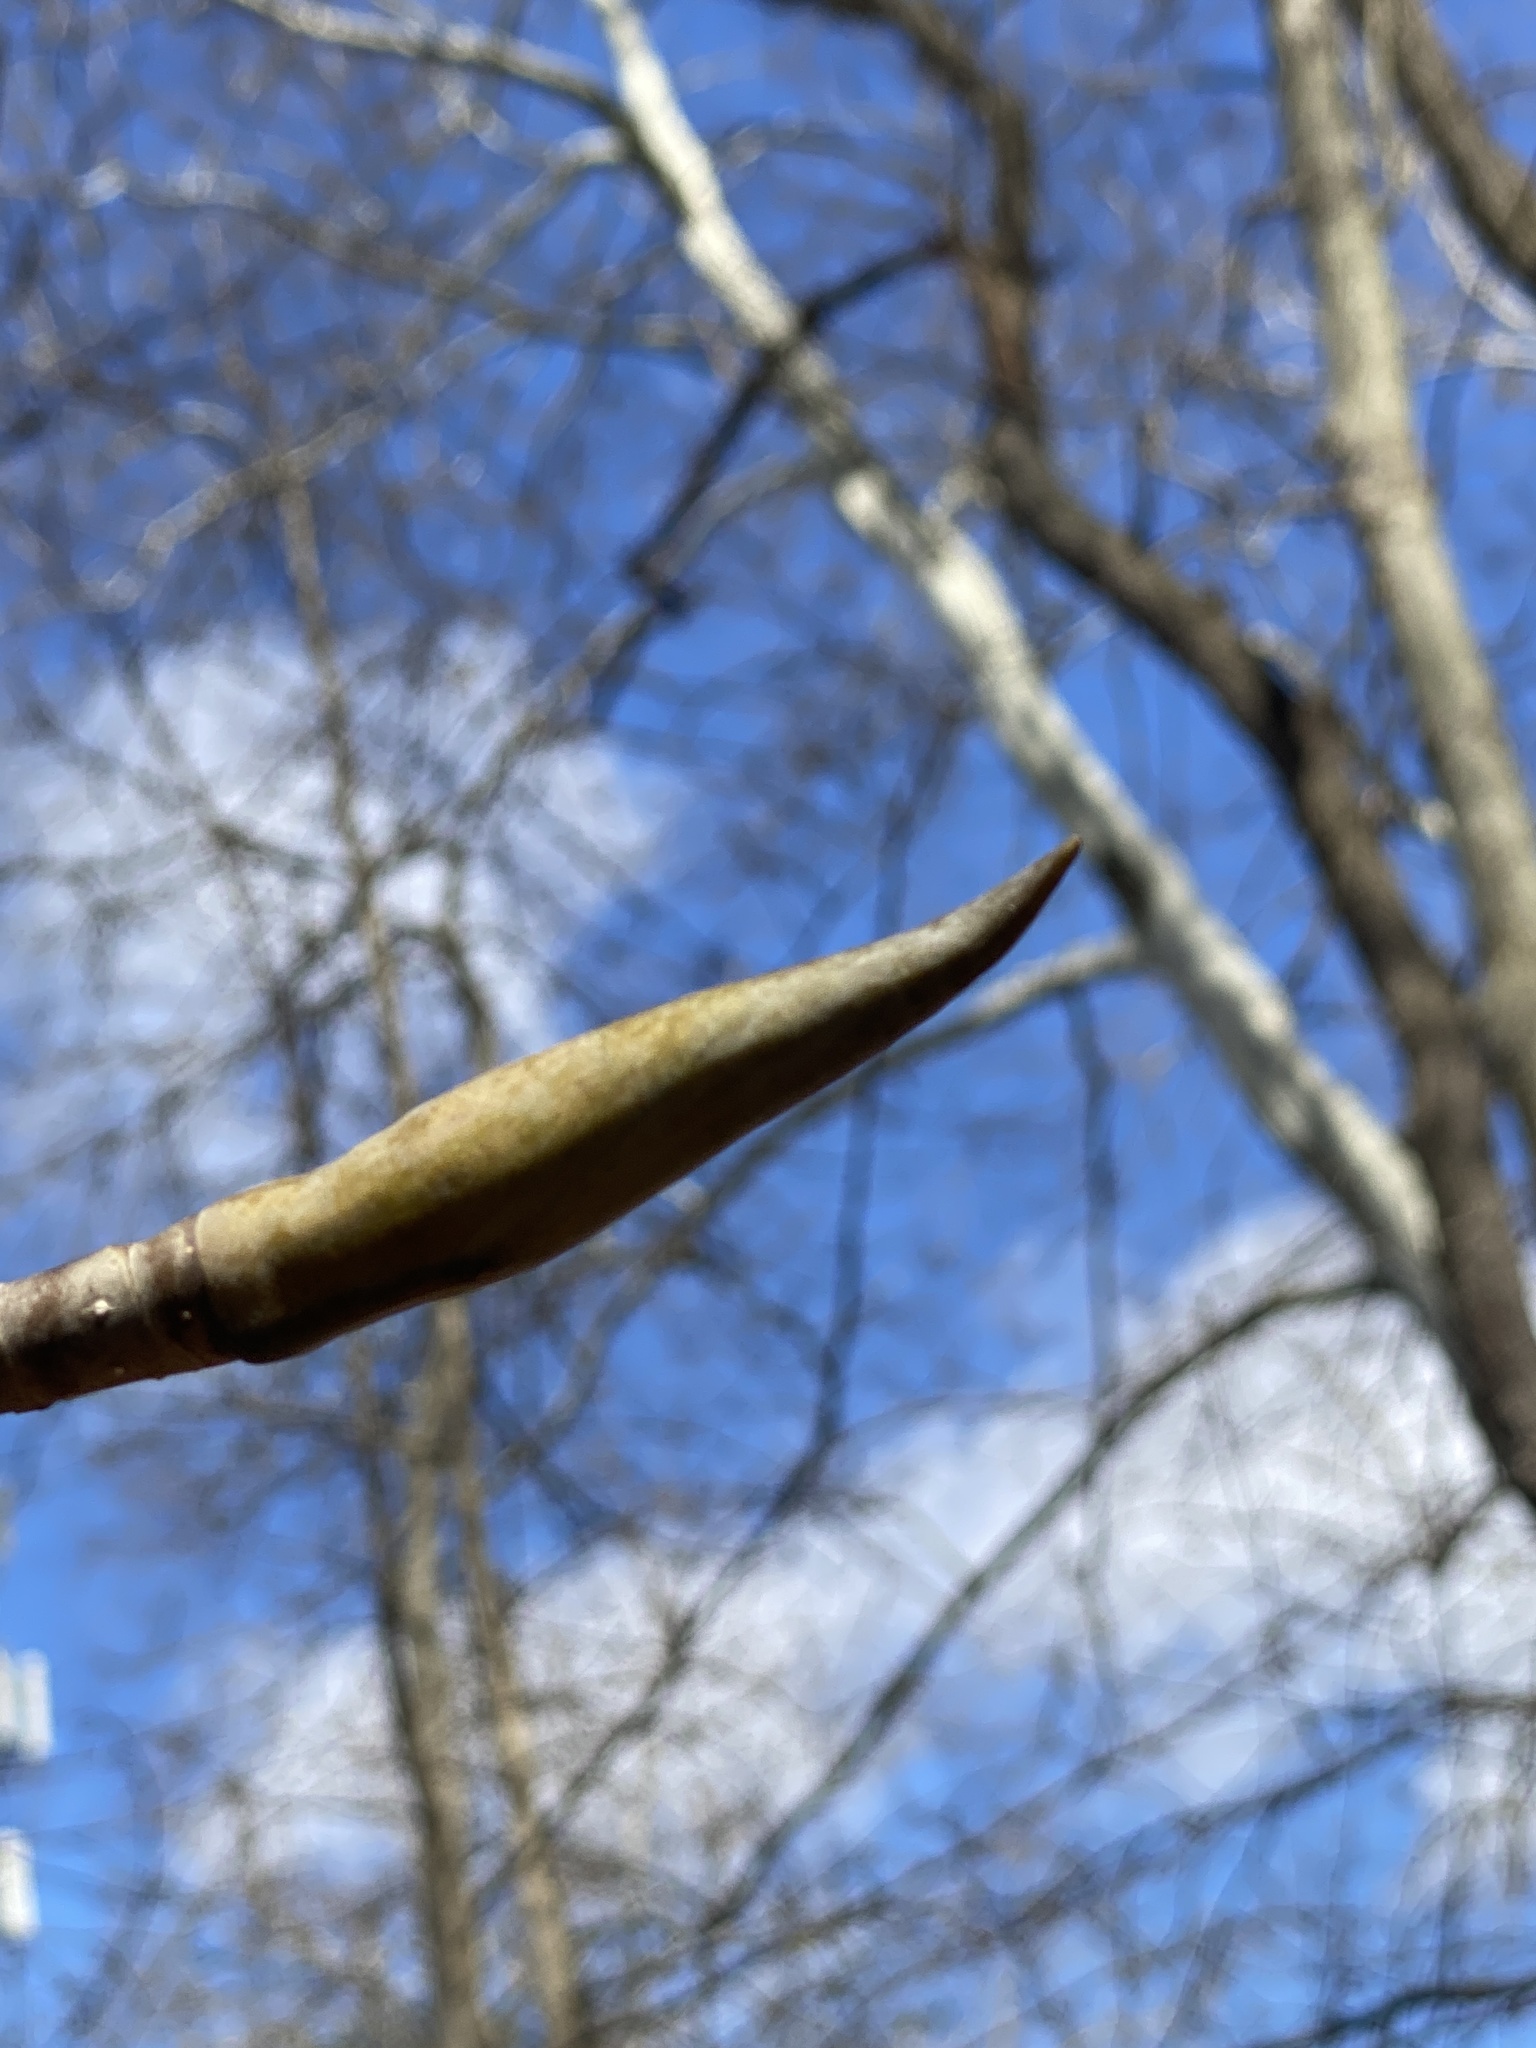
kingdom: Plantae
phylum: Tracheophyta
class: Magnoliopsida
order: Magnoliales
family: Magnoliaceae
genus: Magnolia
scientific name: Magnolia tripetala
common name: Umbrella magnolia
